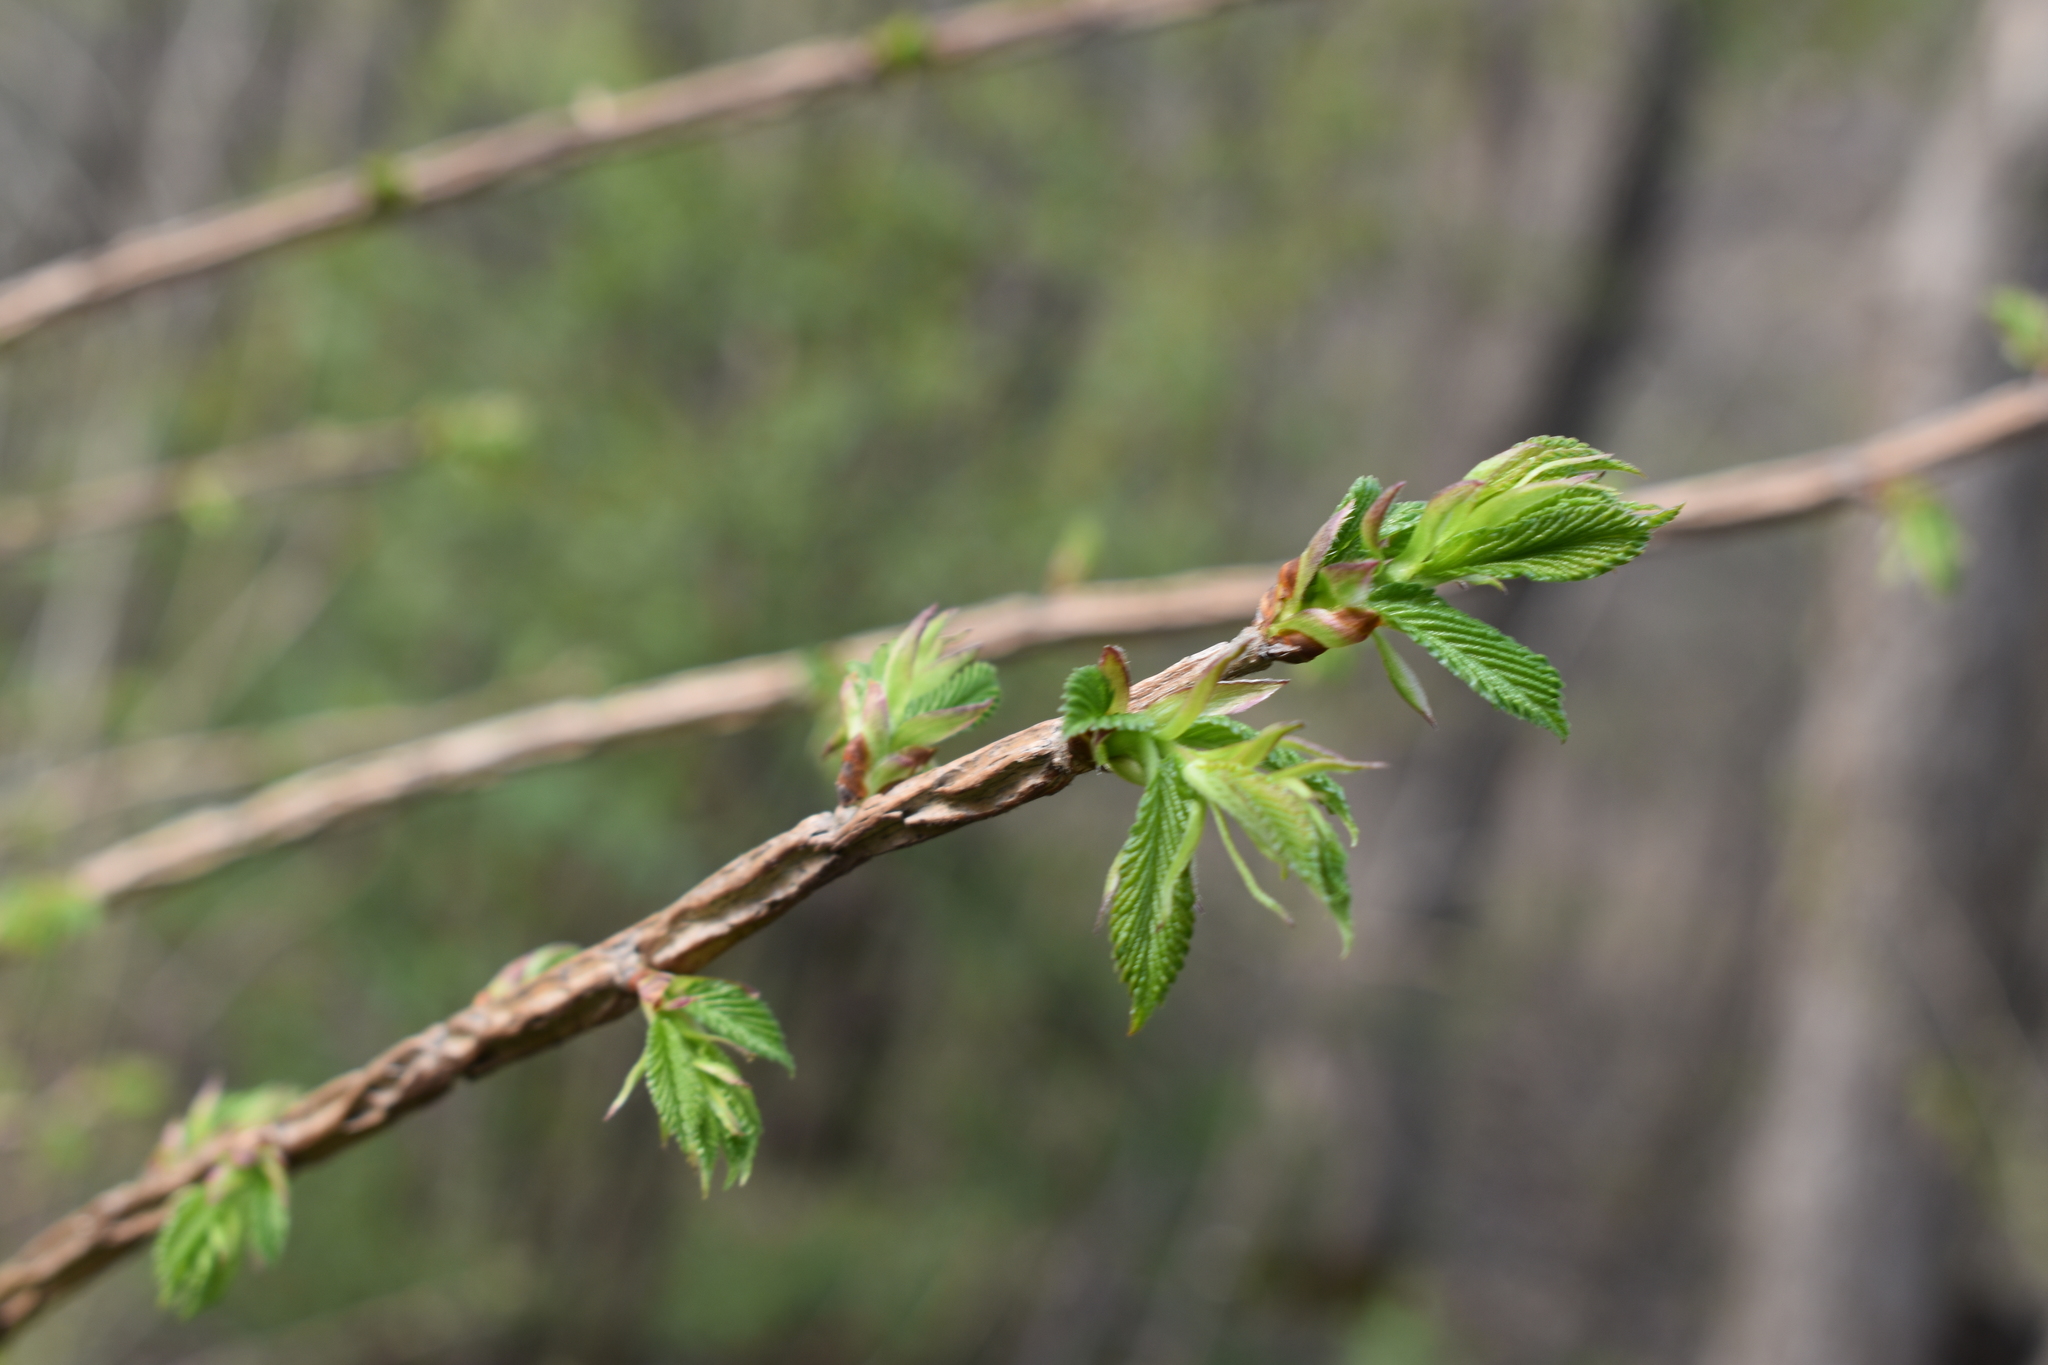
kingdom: Plantae
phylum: Tracheophyta
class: Magnoliopsida
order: Rosales
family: Ulmaceae
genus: Ulmus
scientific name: Ulmus davidiana
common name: Japanese elm
